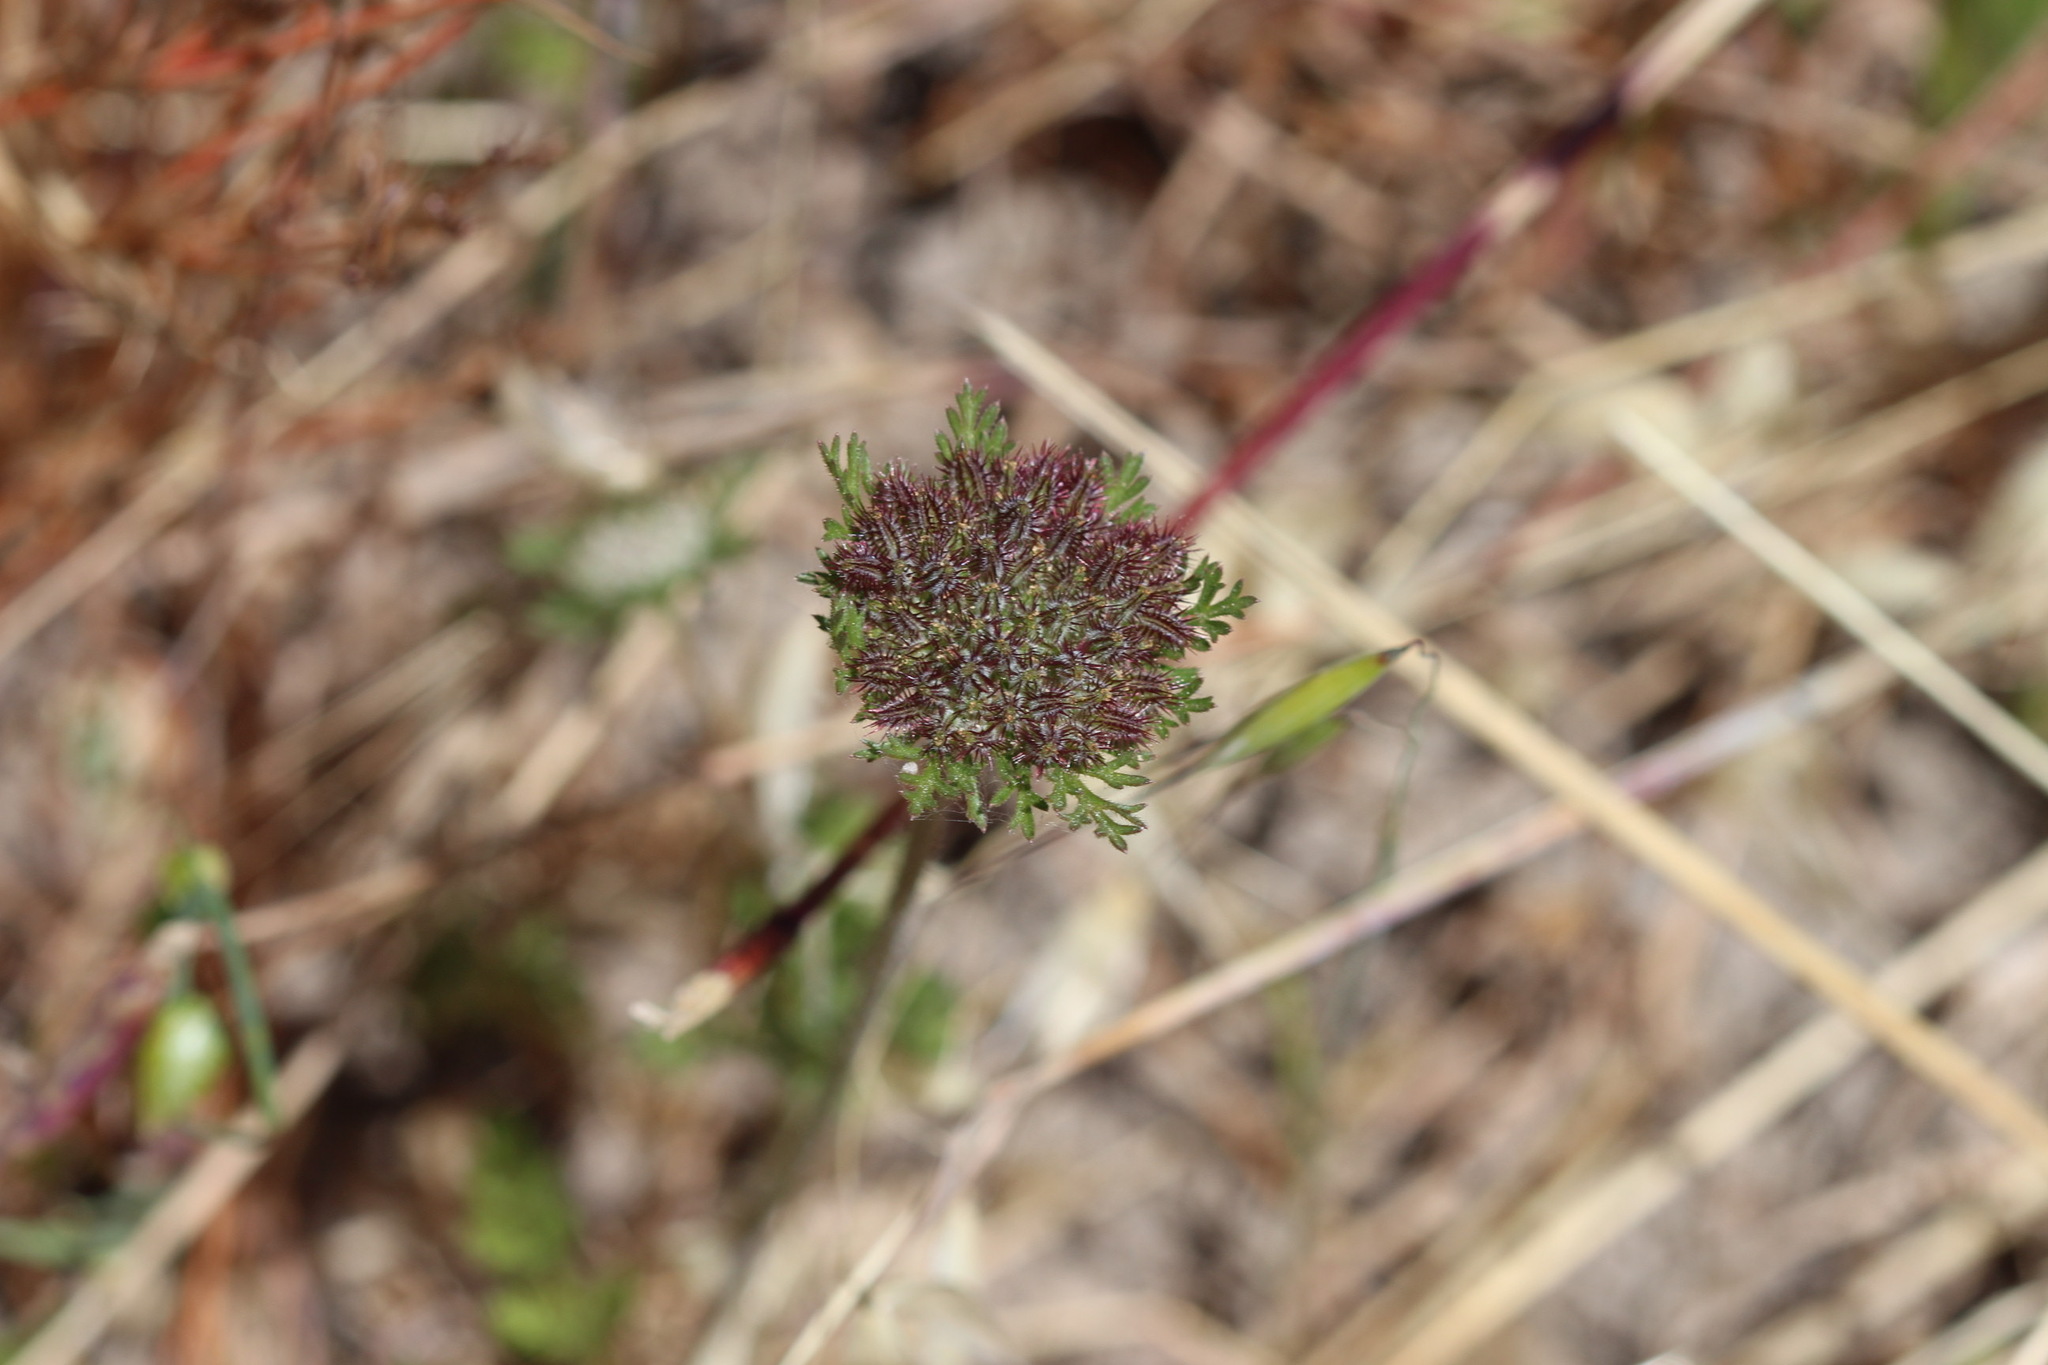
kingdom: Plantae
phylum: Tracheophyta
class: Magnoliopsida
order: Apiales
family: Apiaceae
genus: Daucus
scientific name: Daucus pusillus
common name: Southwest wild carrot
